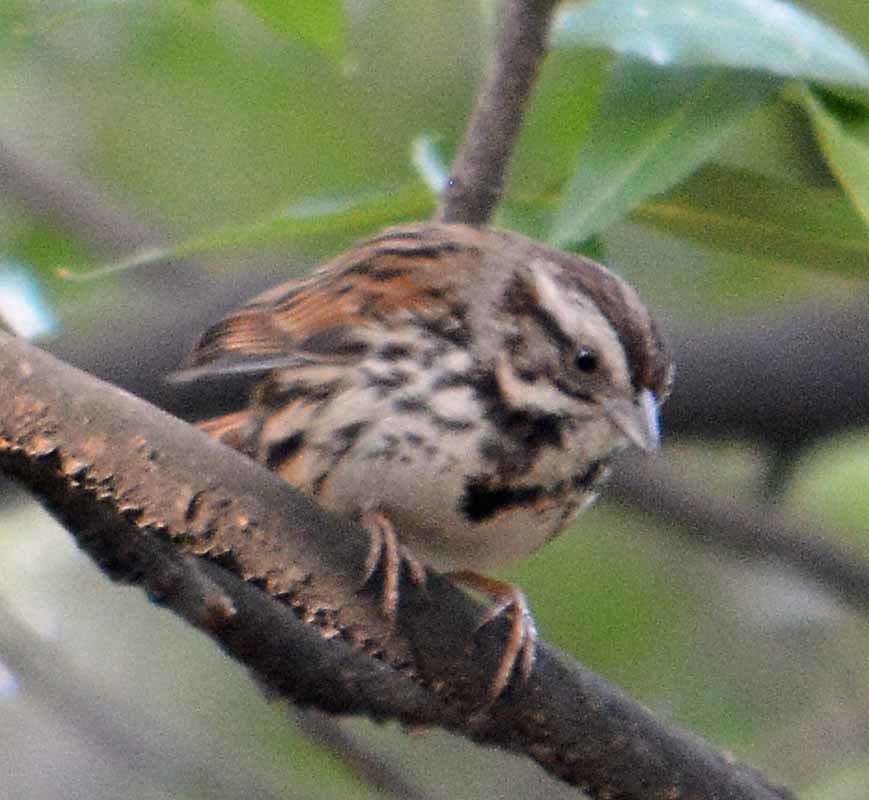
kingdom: Animalia
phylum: Chordata
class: Aves
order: Passeriformes
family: Passerellidae
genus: Melospiza
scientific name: Melospiza melodia
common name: Song sparrow
